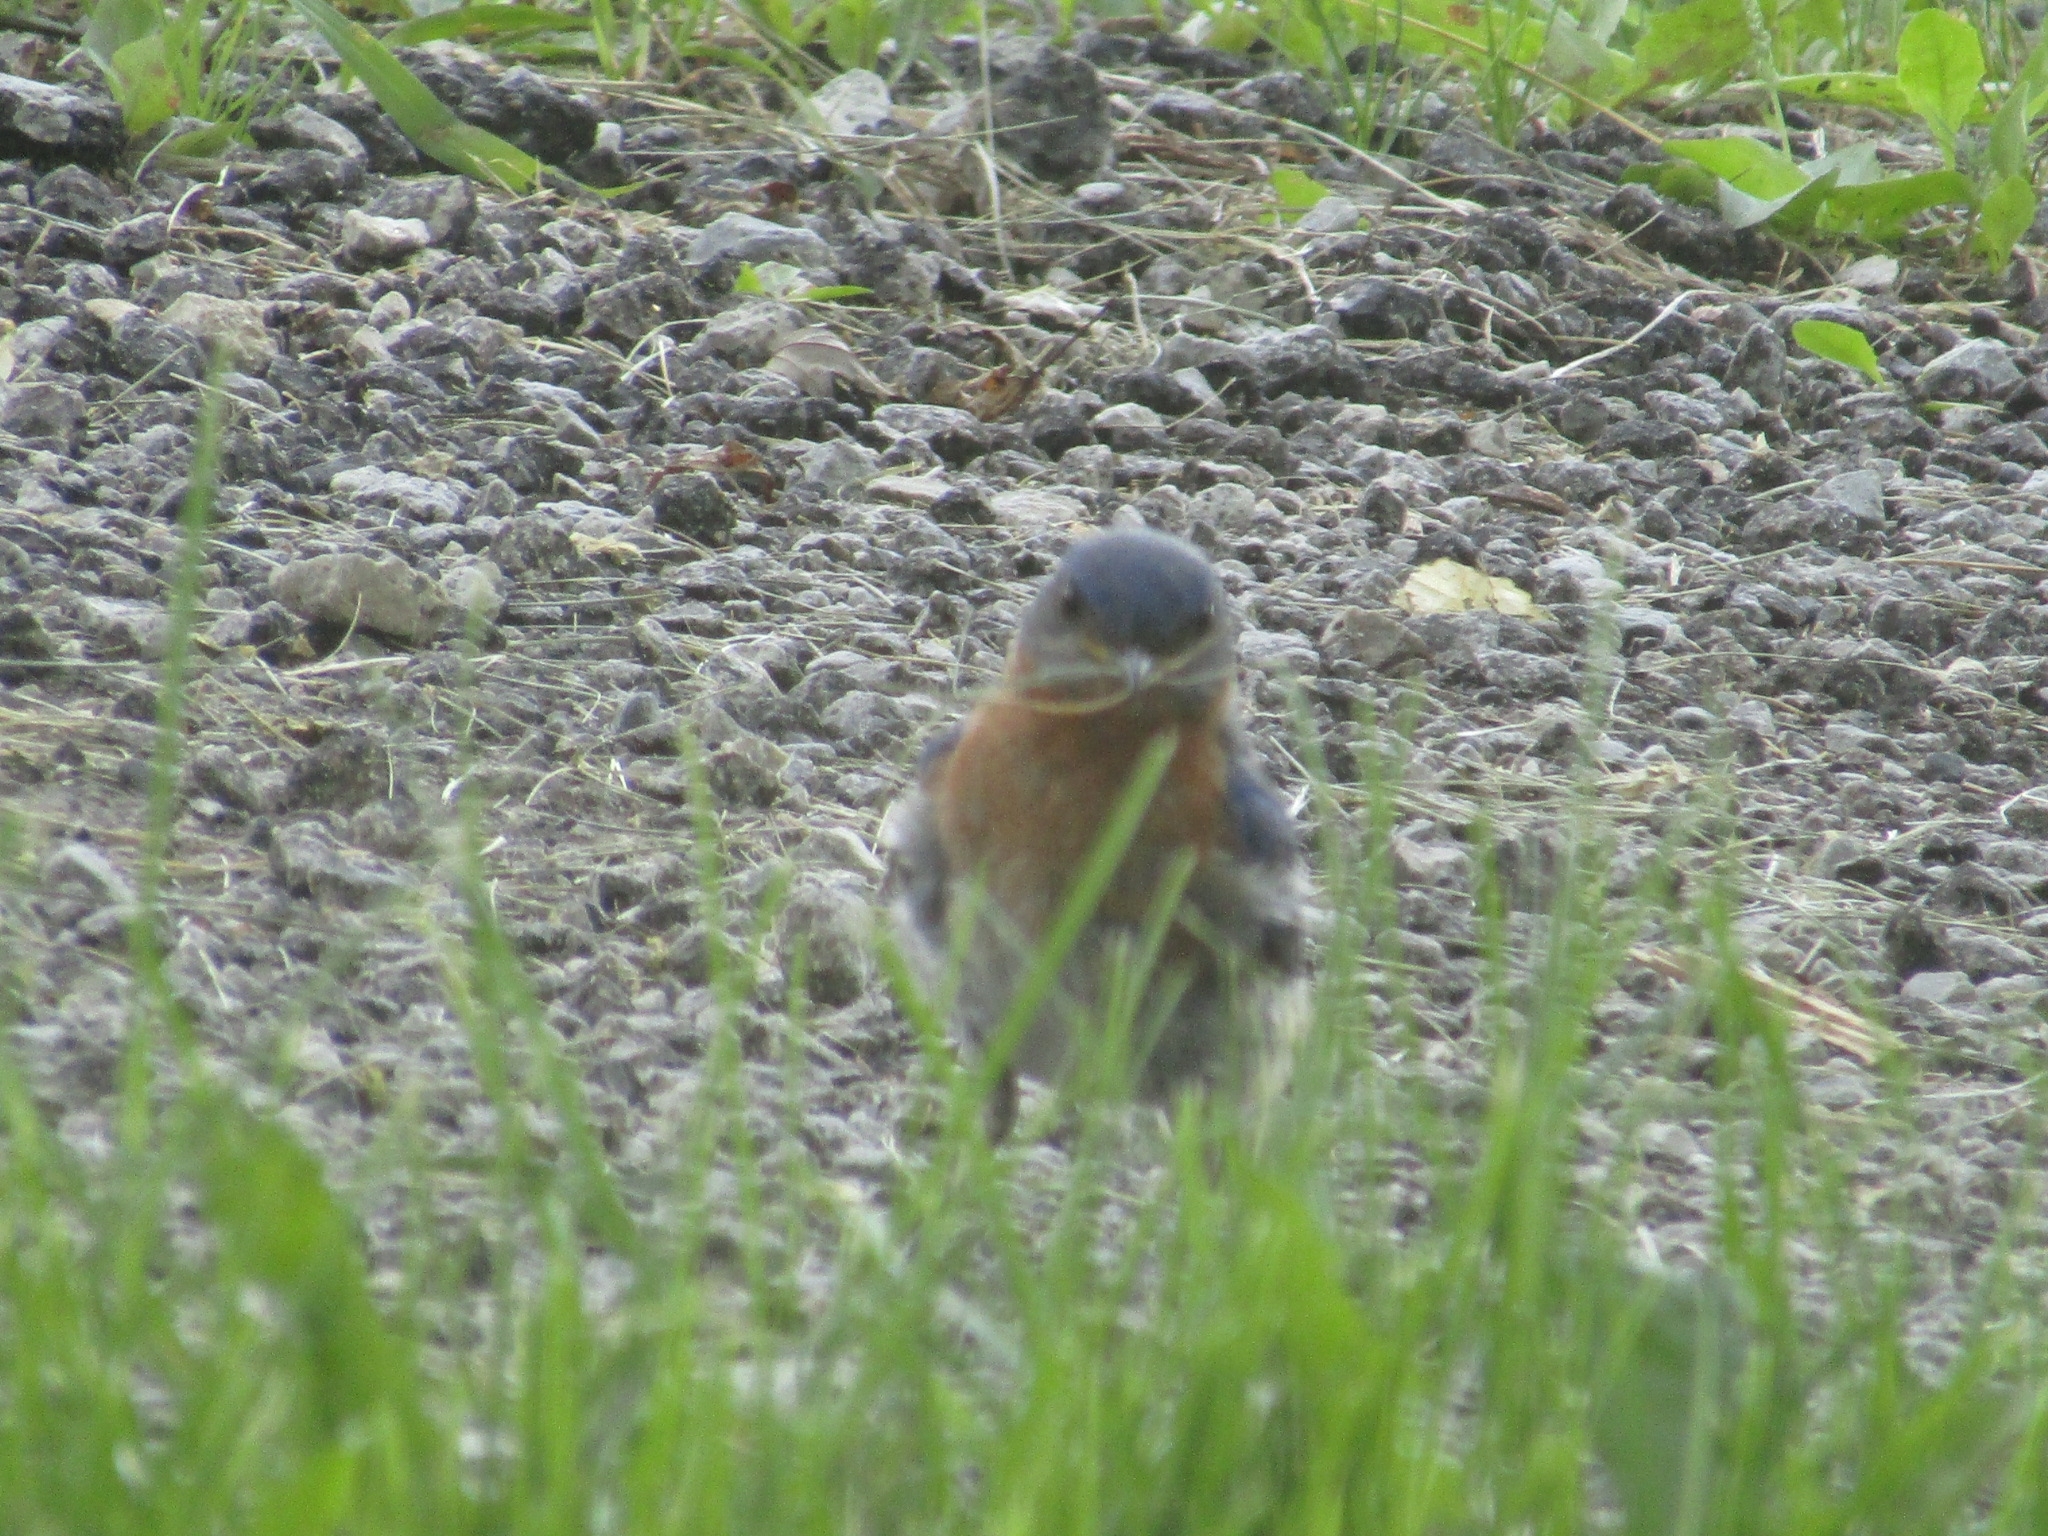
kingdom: Animalia
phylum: Chordata
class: Aves
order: Passeriformes
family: Turdidae
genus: Sialia
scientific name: Sialia sialis
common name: Eastern bluebird
